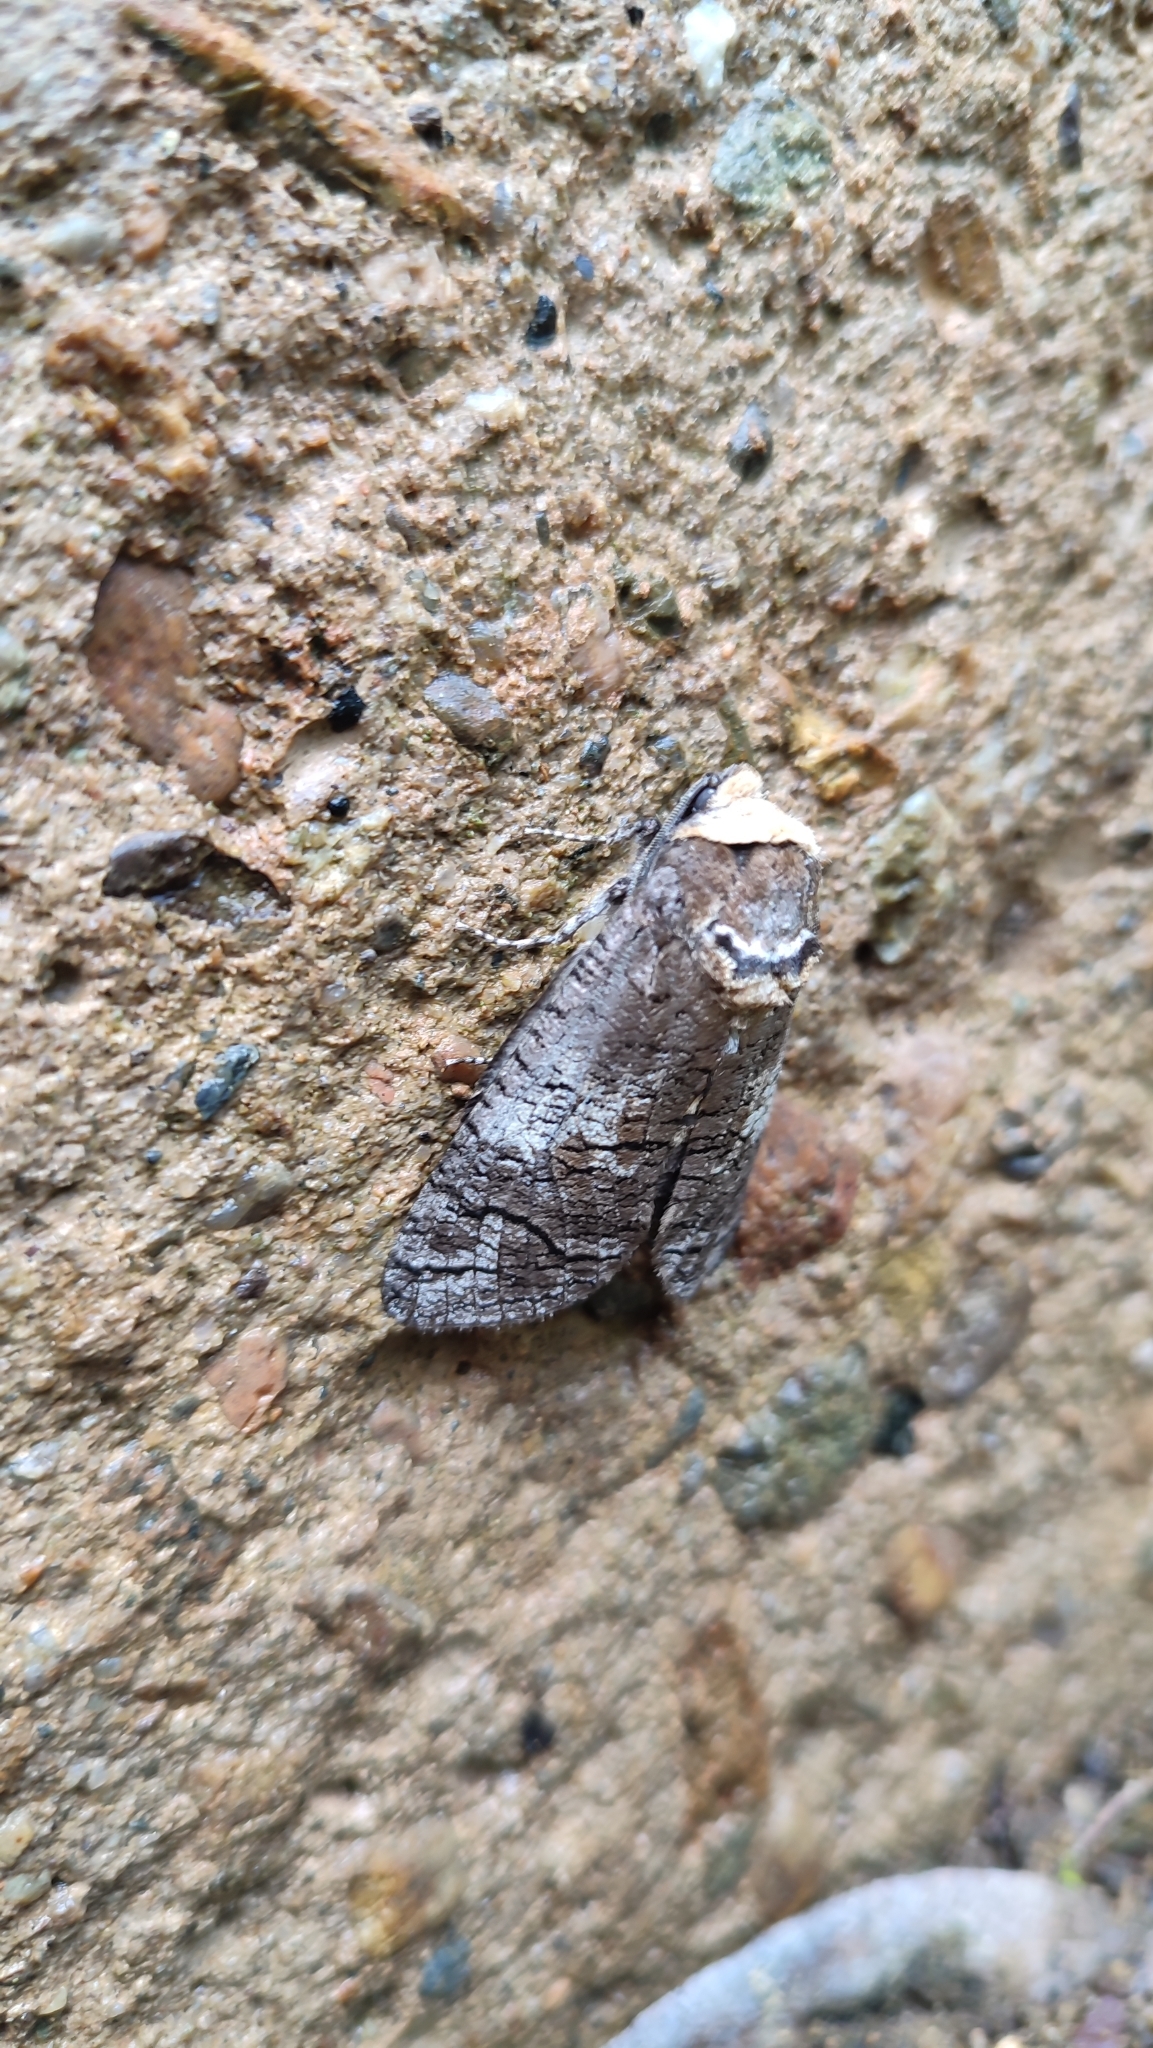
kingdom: Animalia
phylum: Arthropoda
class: Insecta
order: Lepidoptera
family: Cossidae
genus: Cossus
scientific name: Cossus orientalis
